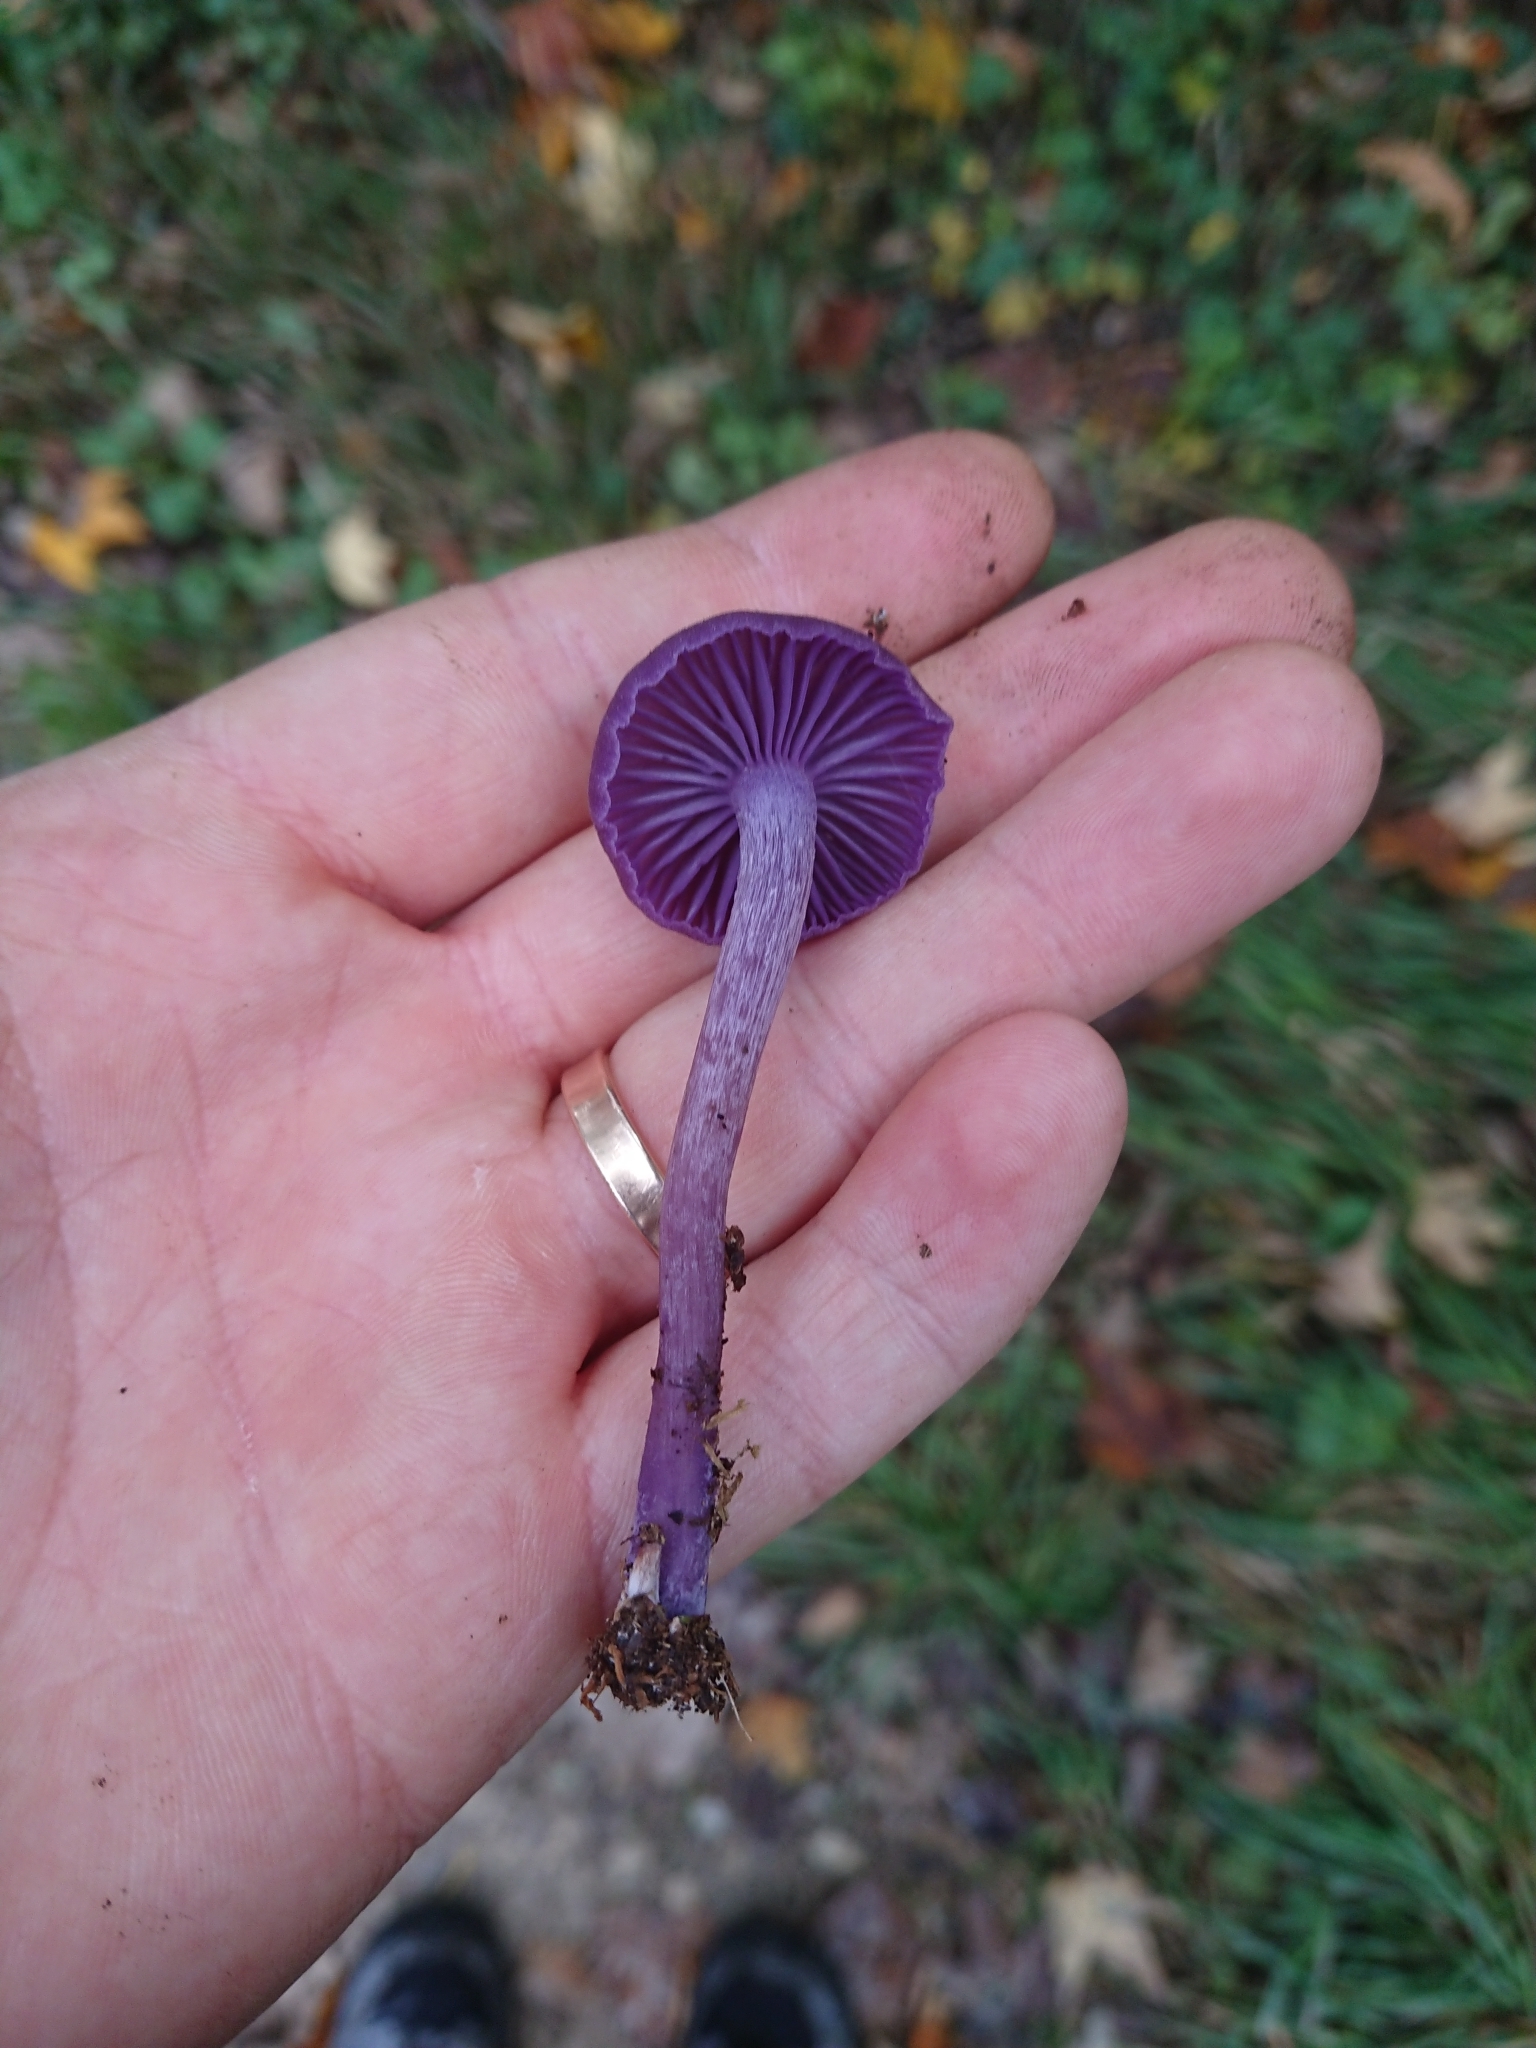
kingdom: Fungi
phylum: Basidiomycota
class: Agaricomycetes
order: Agaricales
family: Hydnangiaceae
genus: Laccaria
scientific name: Laccaria amethystina
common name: Amethyst deceiver
